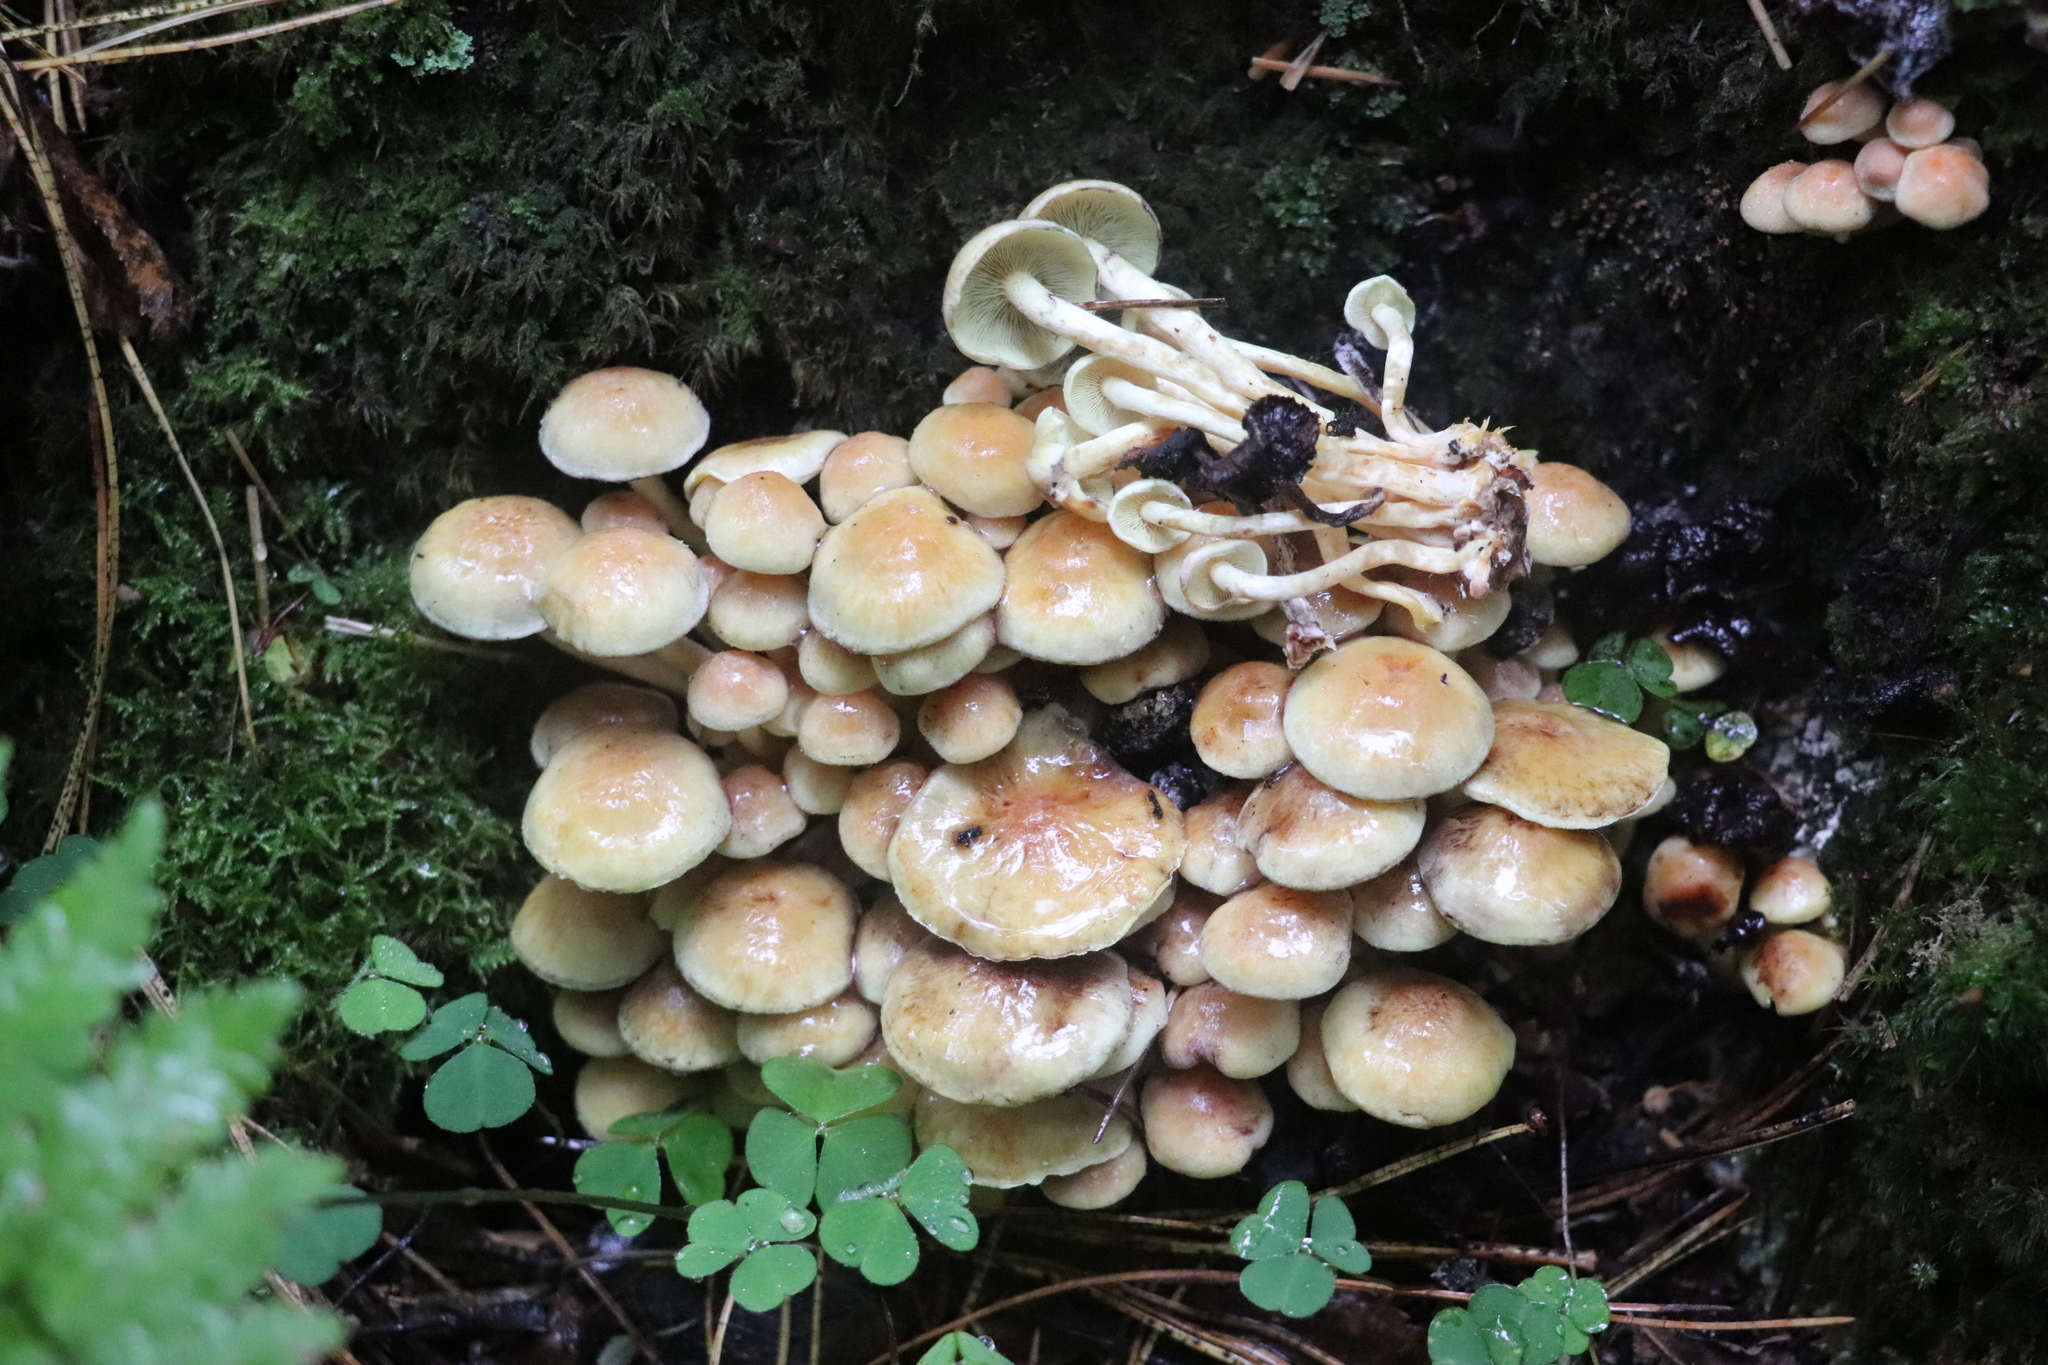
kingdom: Fungi
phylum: Basidiomycota
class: Agaricomycetes
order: Agaricales
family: Strophariaceae
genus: Hypholoma
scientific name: Hypholoma fasciculare
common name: Sulphur tuft
